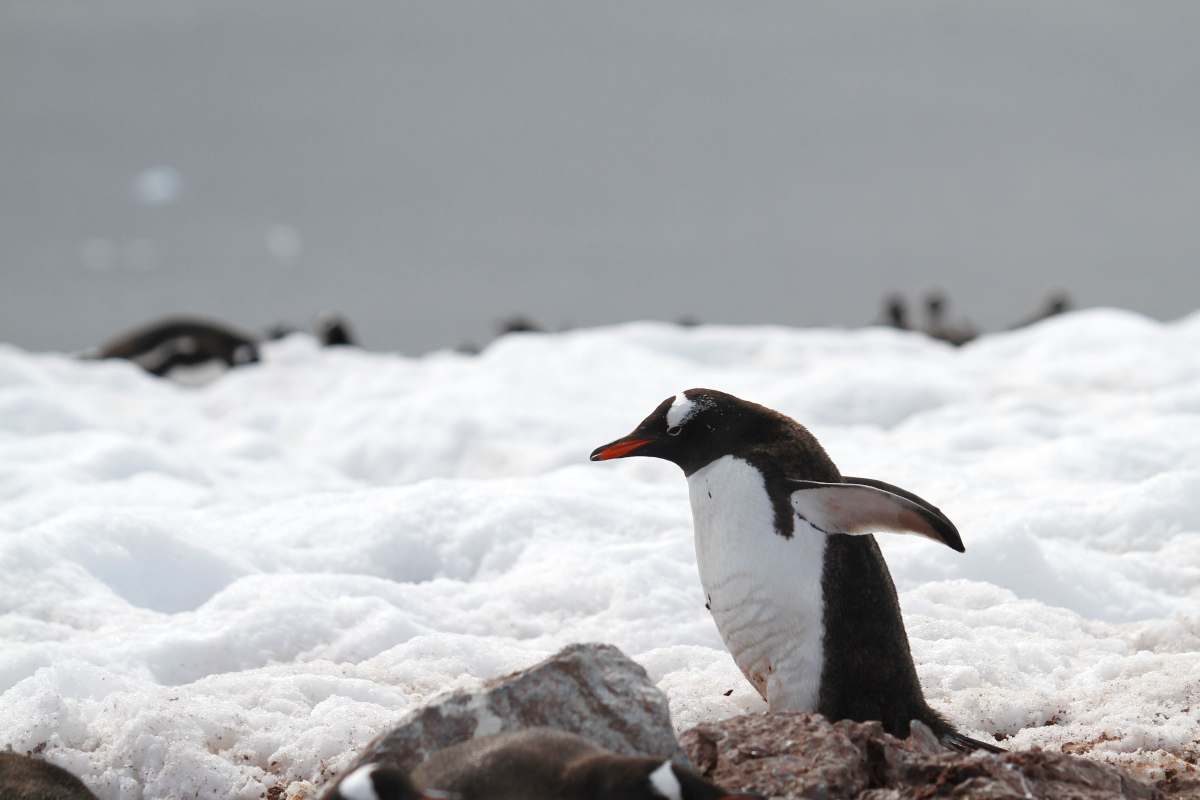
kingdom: Animalia
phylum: Chordata
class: Aves
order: Sphenisciformes
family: Spheniscidae
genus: Pygoscelis
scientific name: Pygoscelis papua
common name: Gentoo penguin
